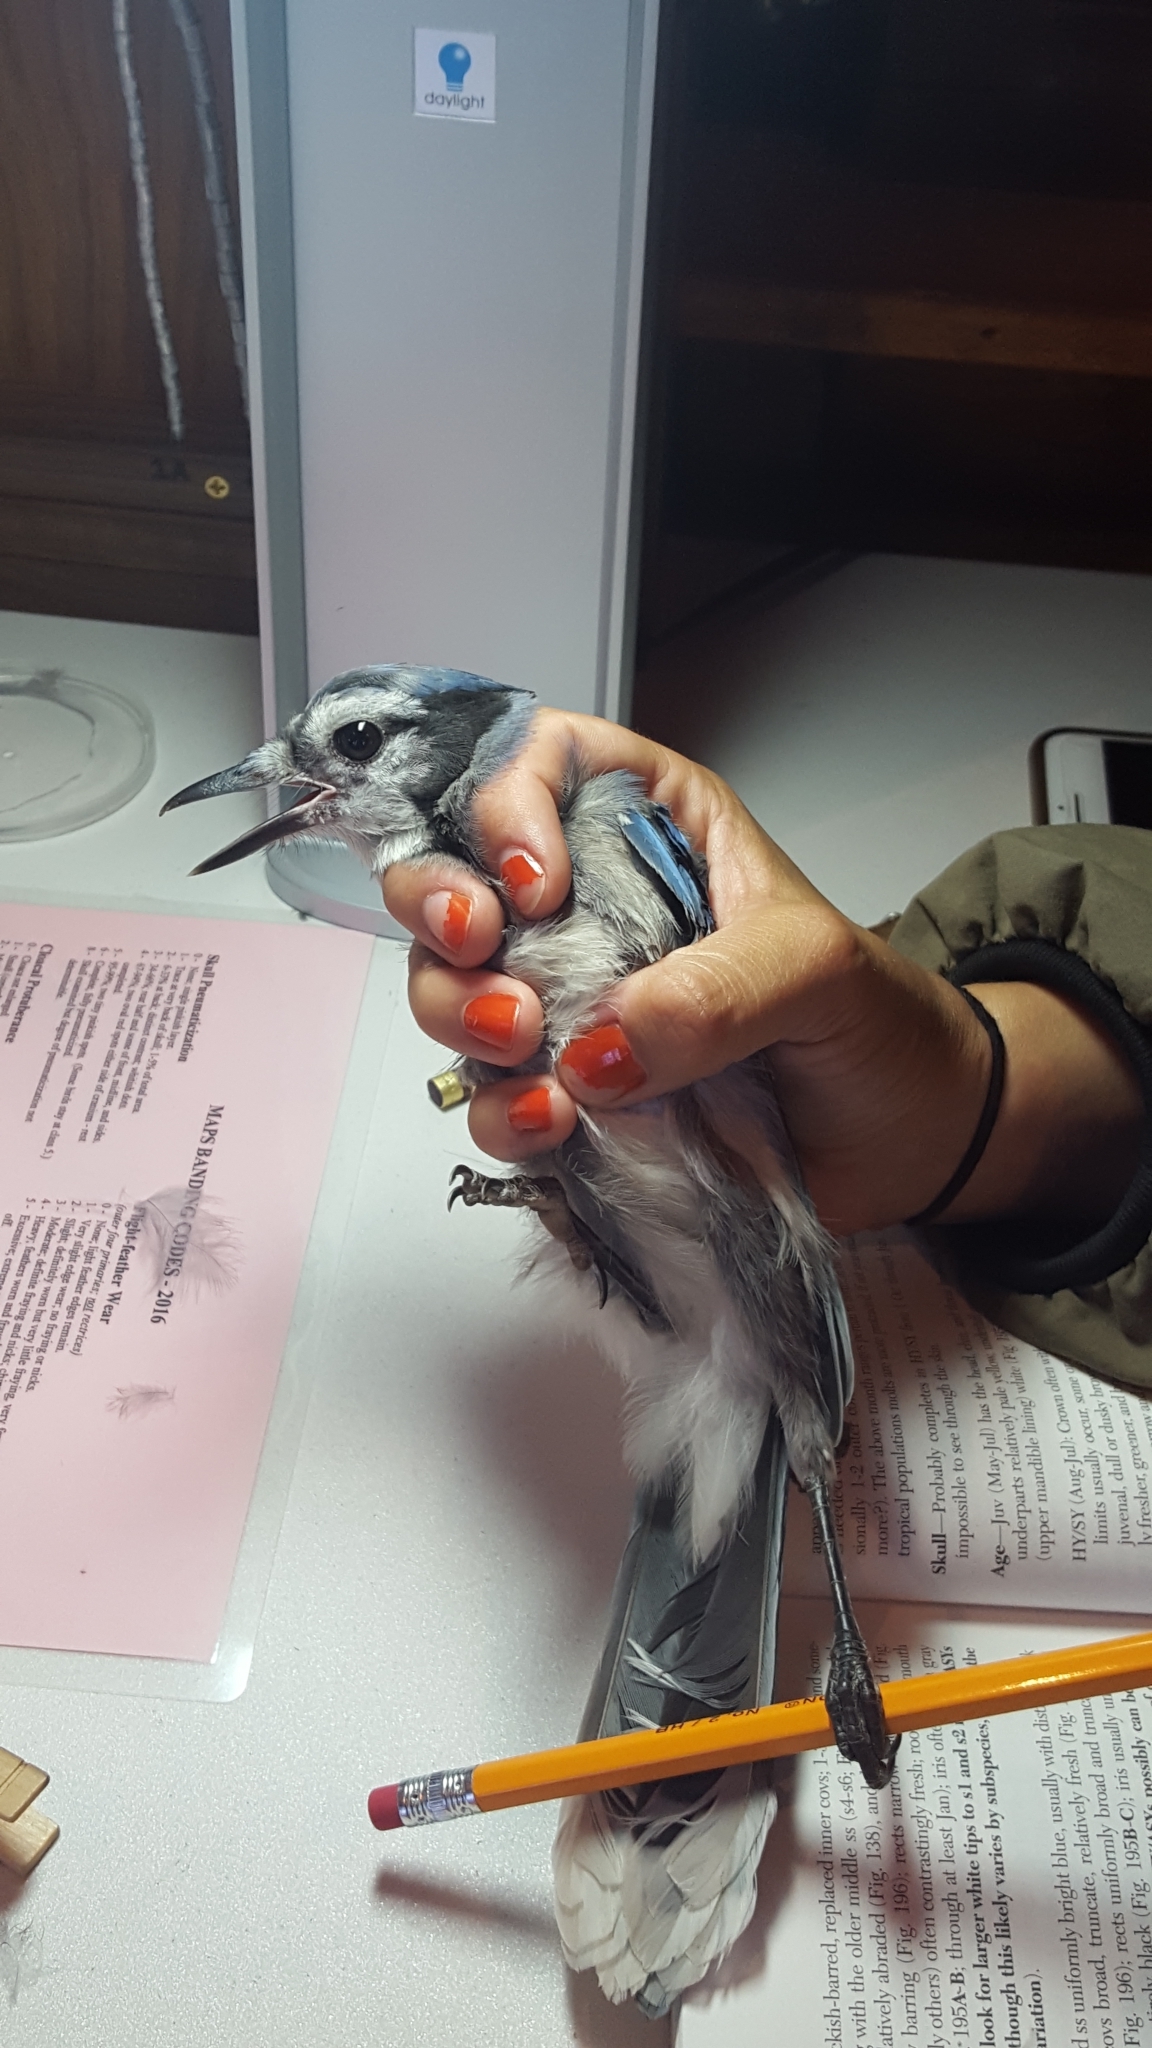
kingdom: Animalia
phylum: Chordata
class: Aves
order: Passeriformes
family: Corvidae
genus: Cyanocitta
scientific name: Cyanocitta cristata
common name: Blue jay
